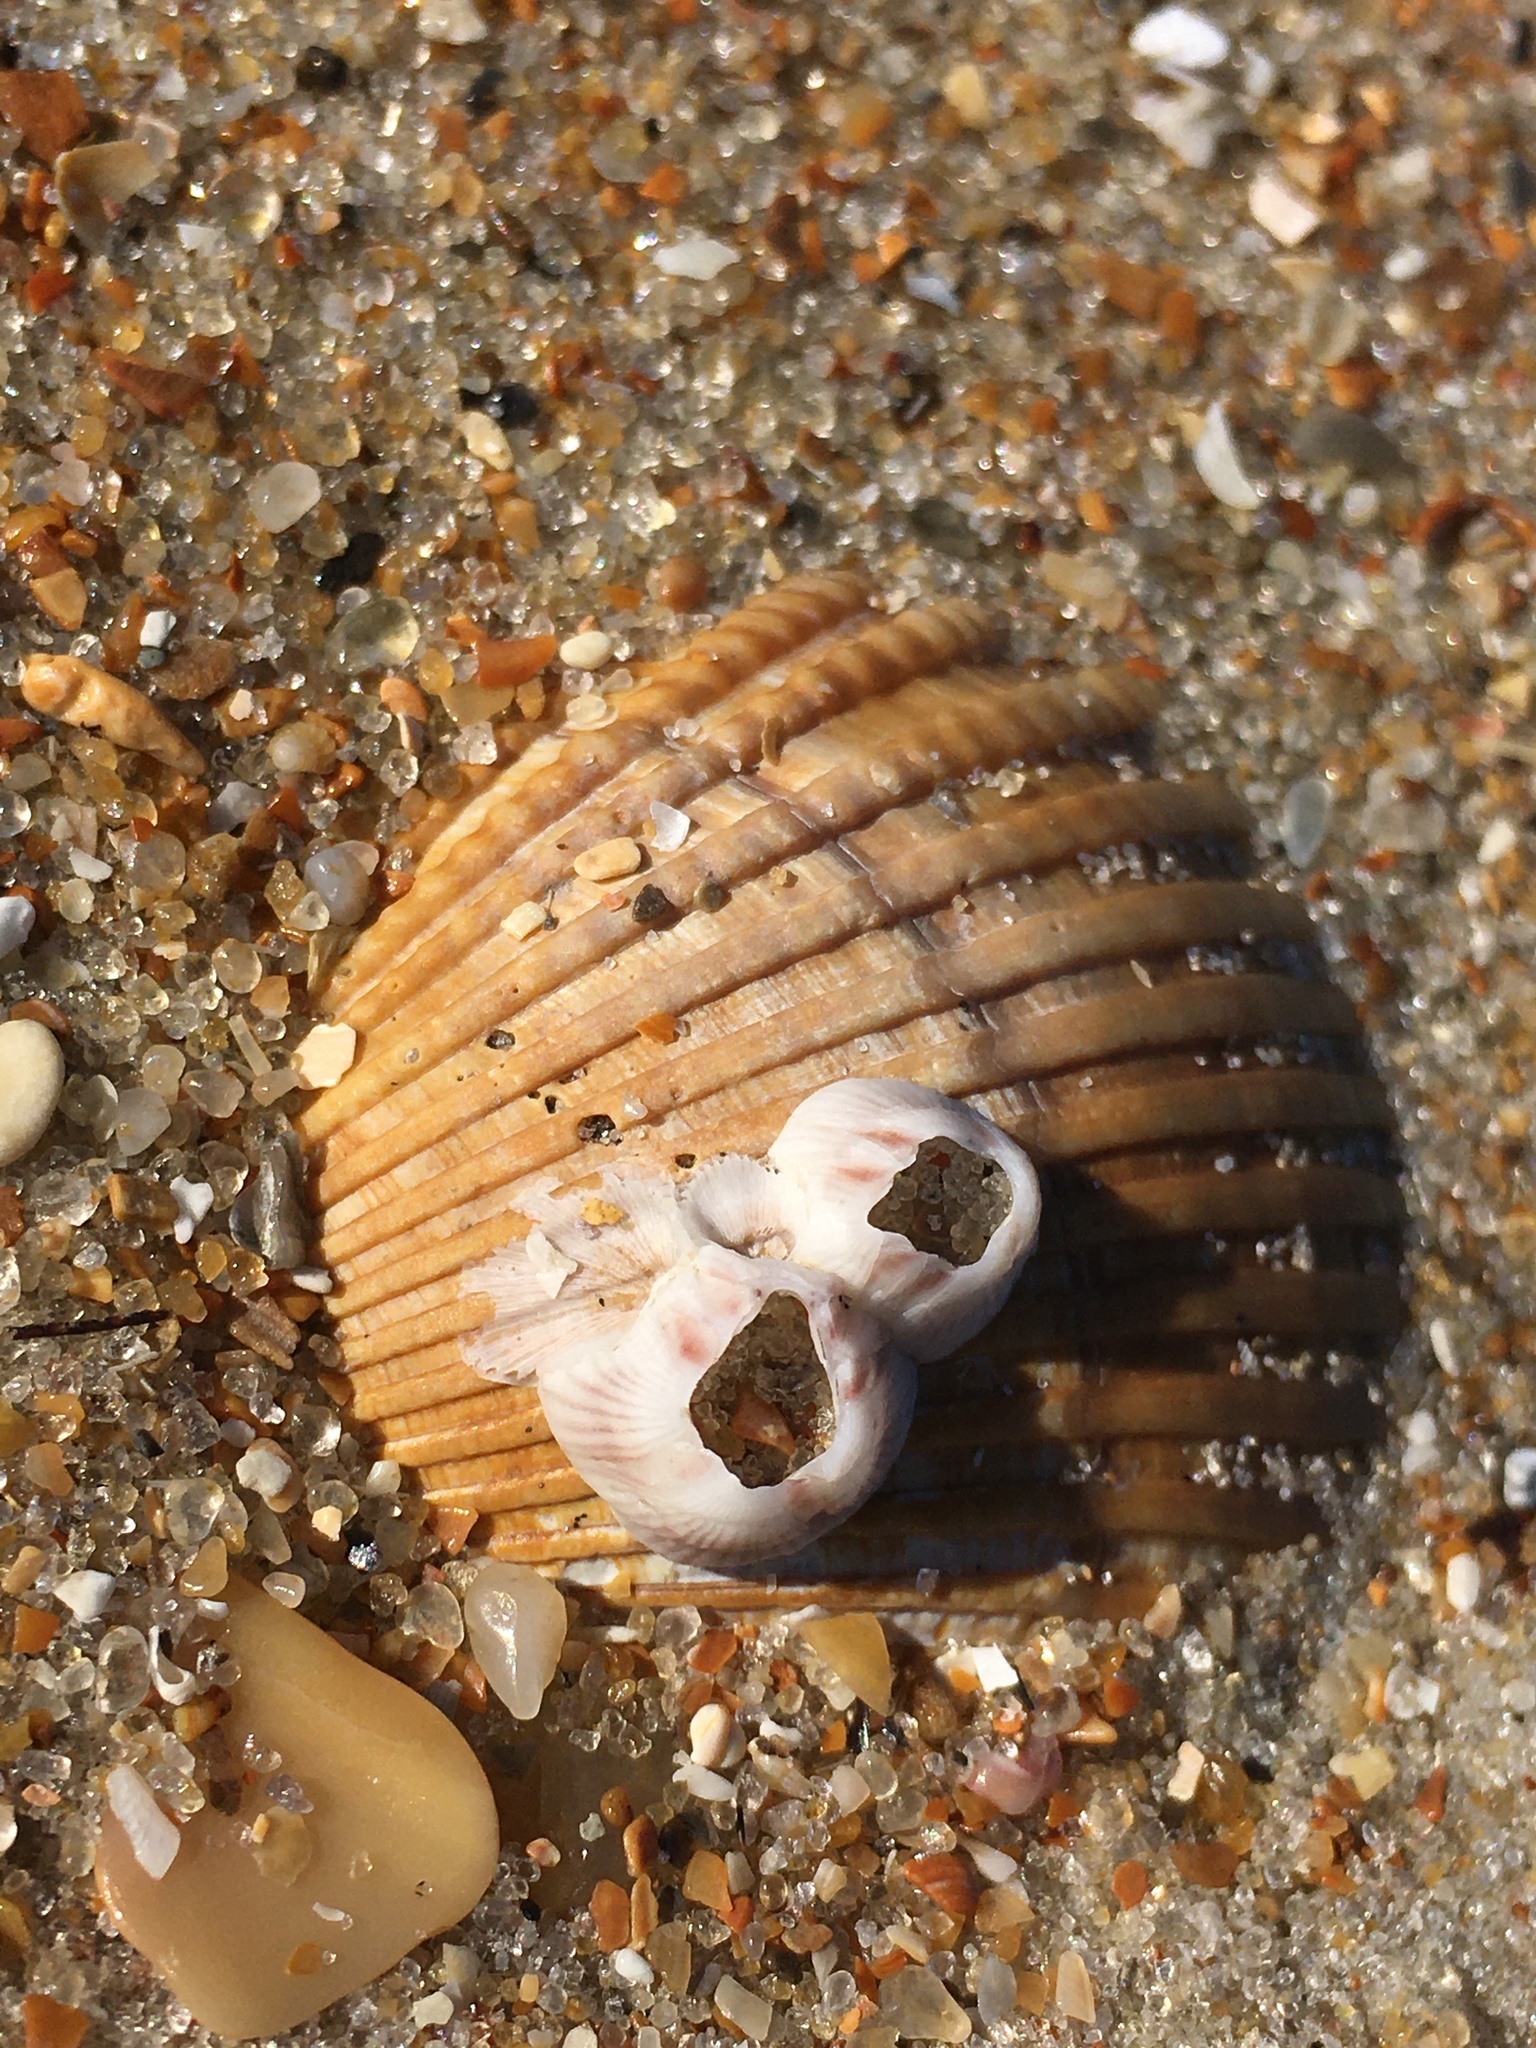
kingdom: Animalia
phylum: Arthropoda
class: Maxillopoda
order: Sessilia
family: Balanidae
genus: Amphibalanus
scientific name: Amphibalanus venustus
